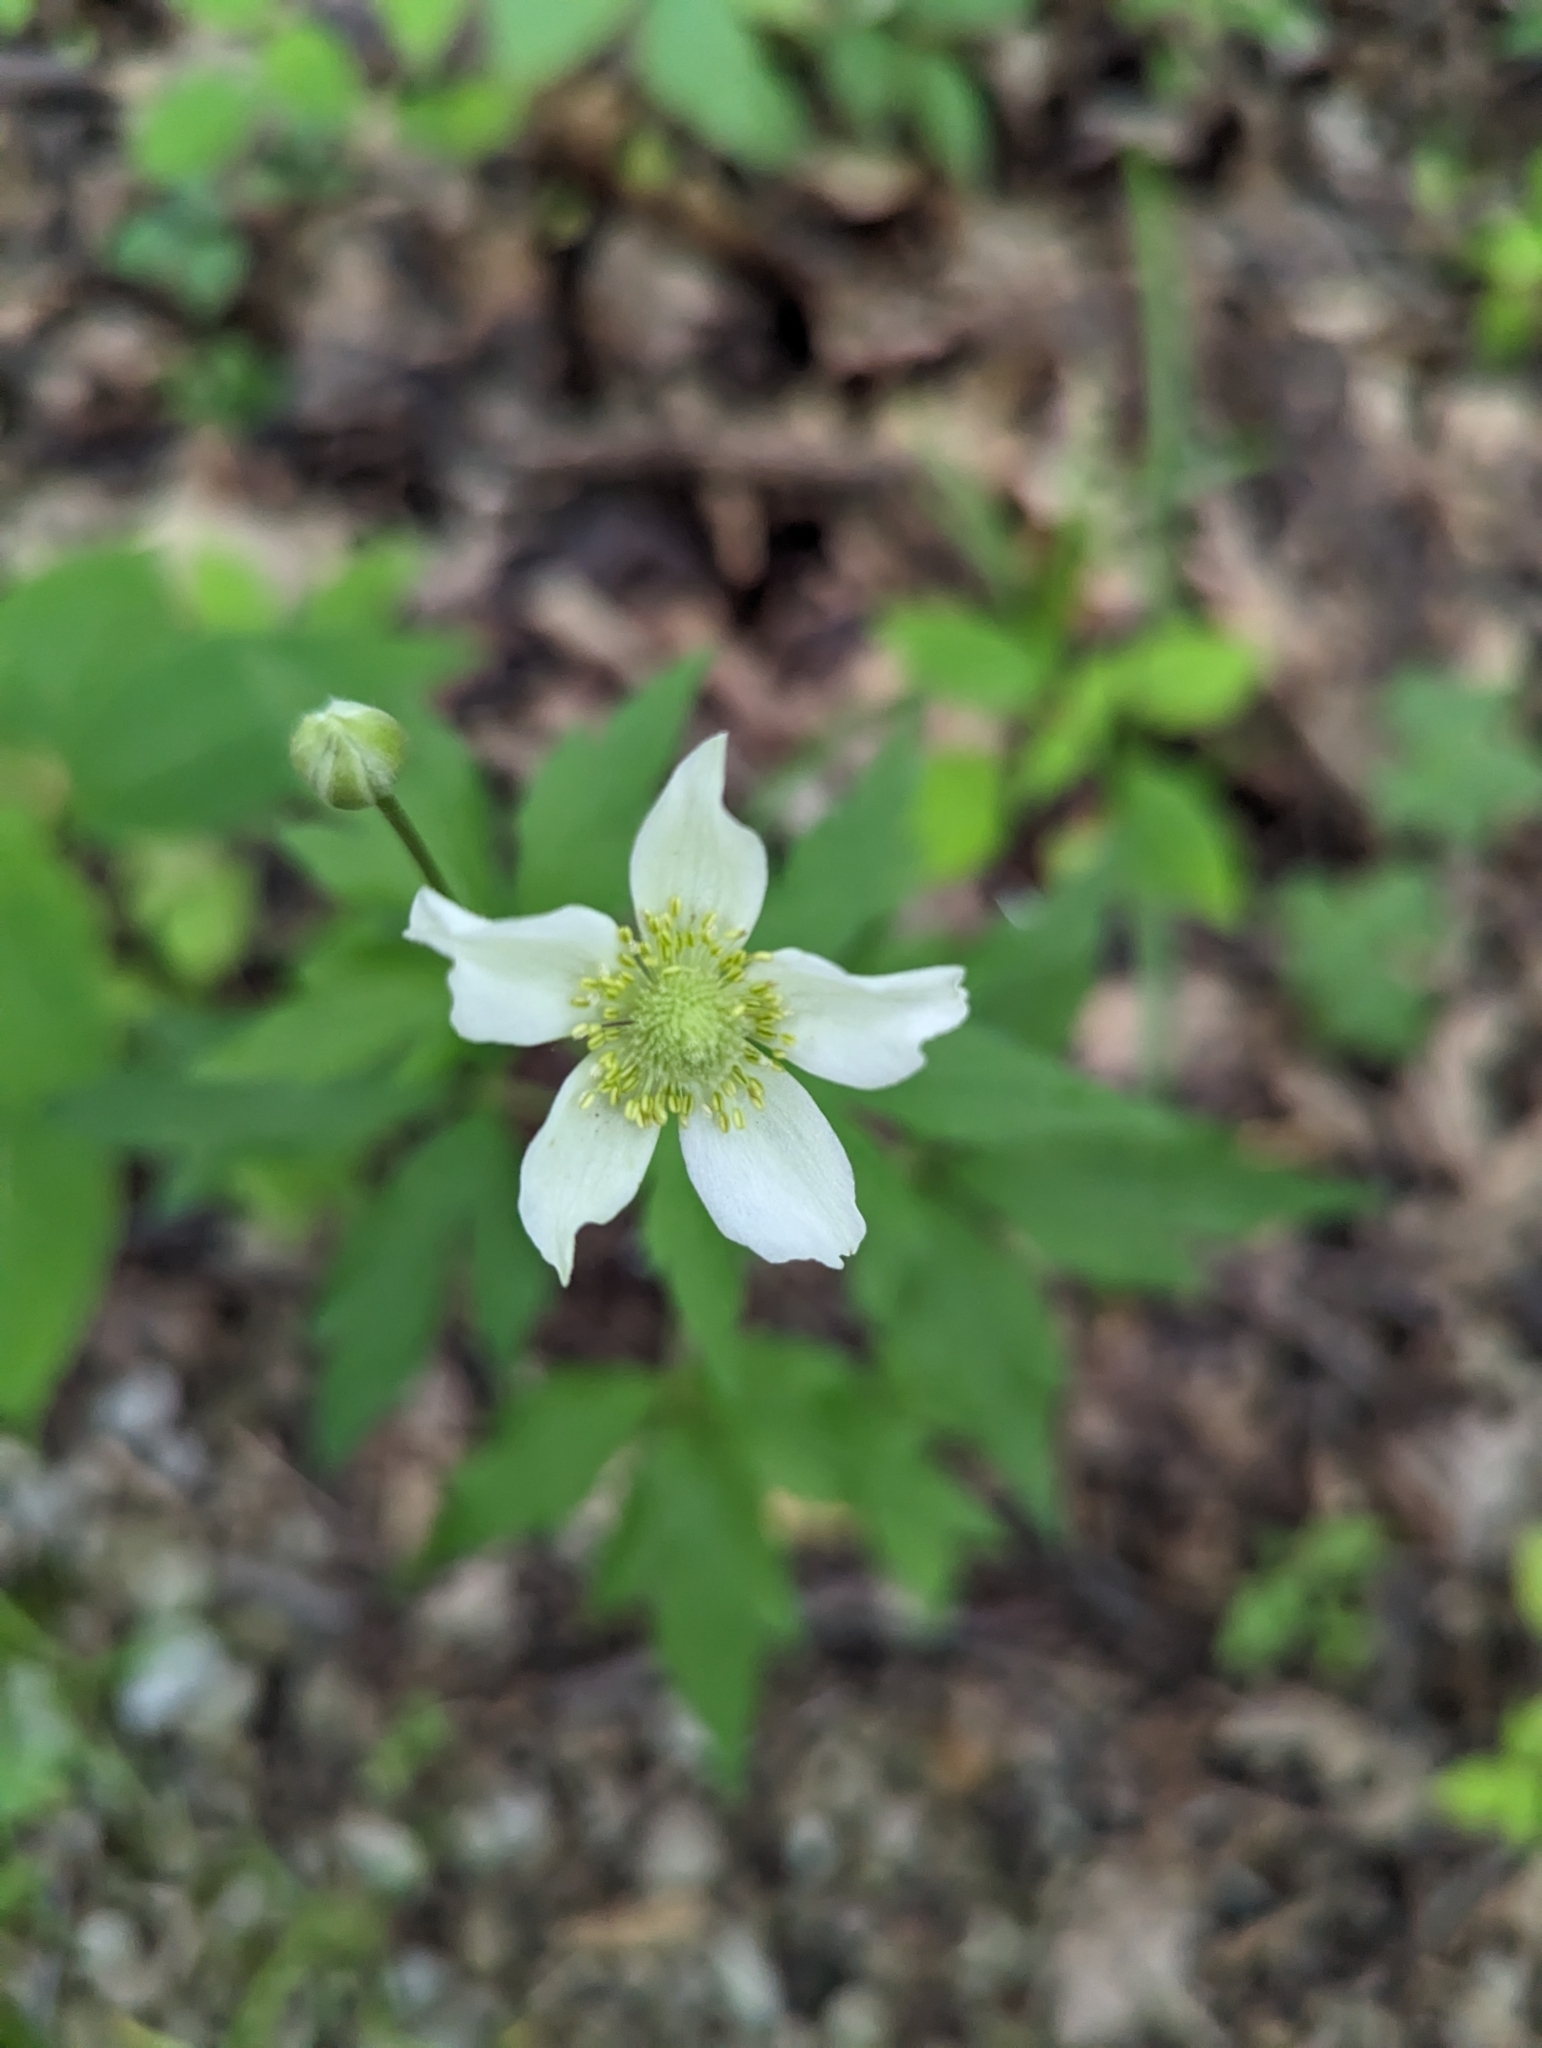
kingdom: Plantae
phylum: Tracheophyta
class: Magnoliopsida
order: Ranunculales
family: Ranunculaceae
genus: Anemone
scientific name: Anemone virginiana
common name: Tall anemone
